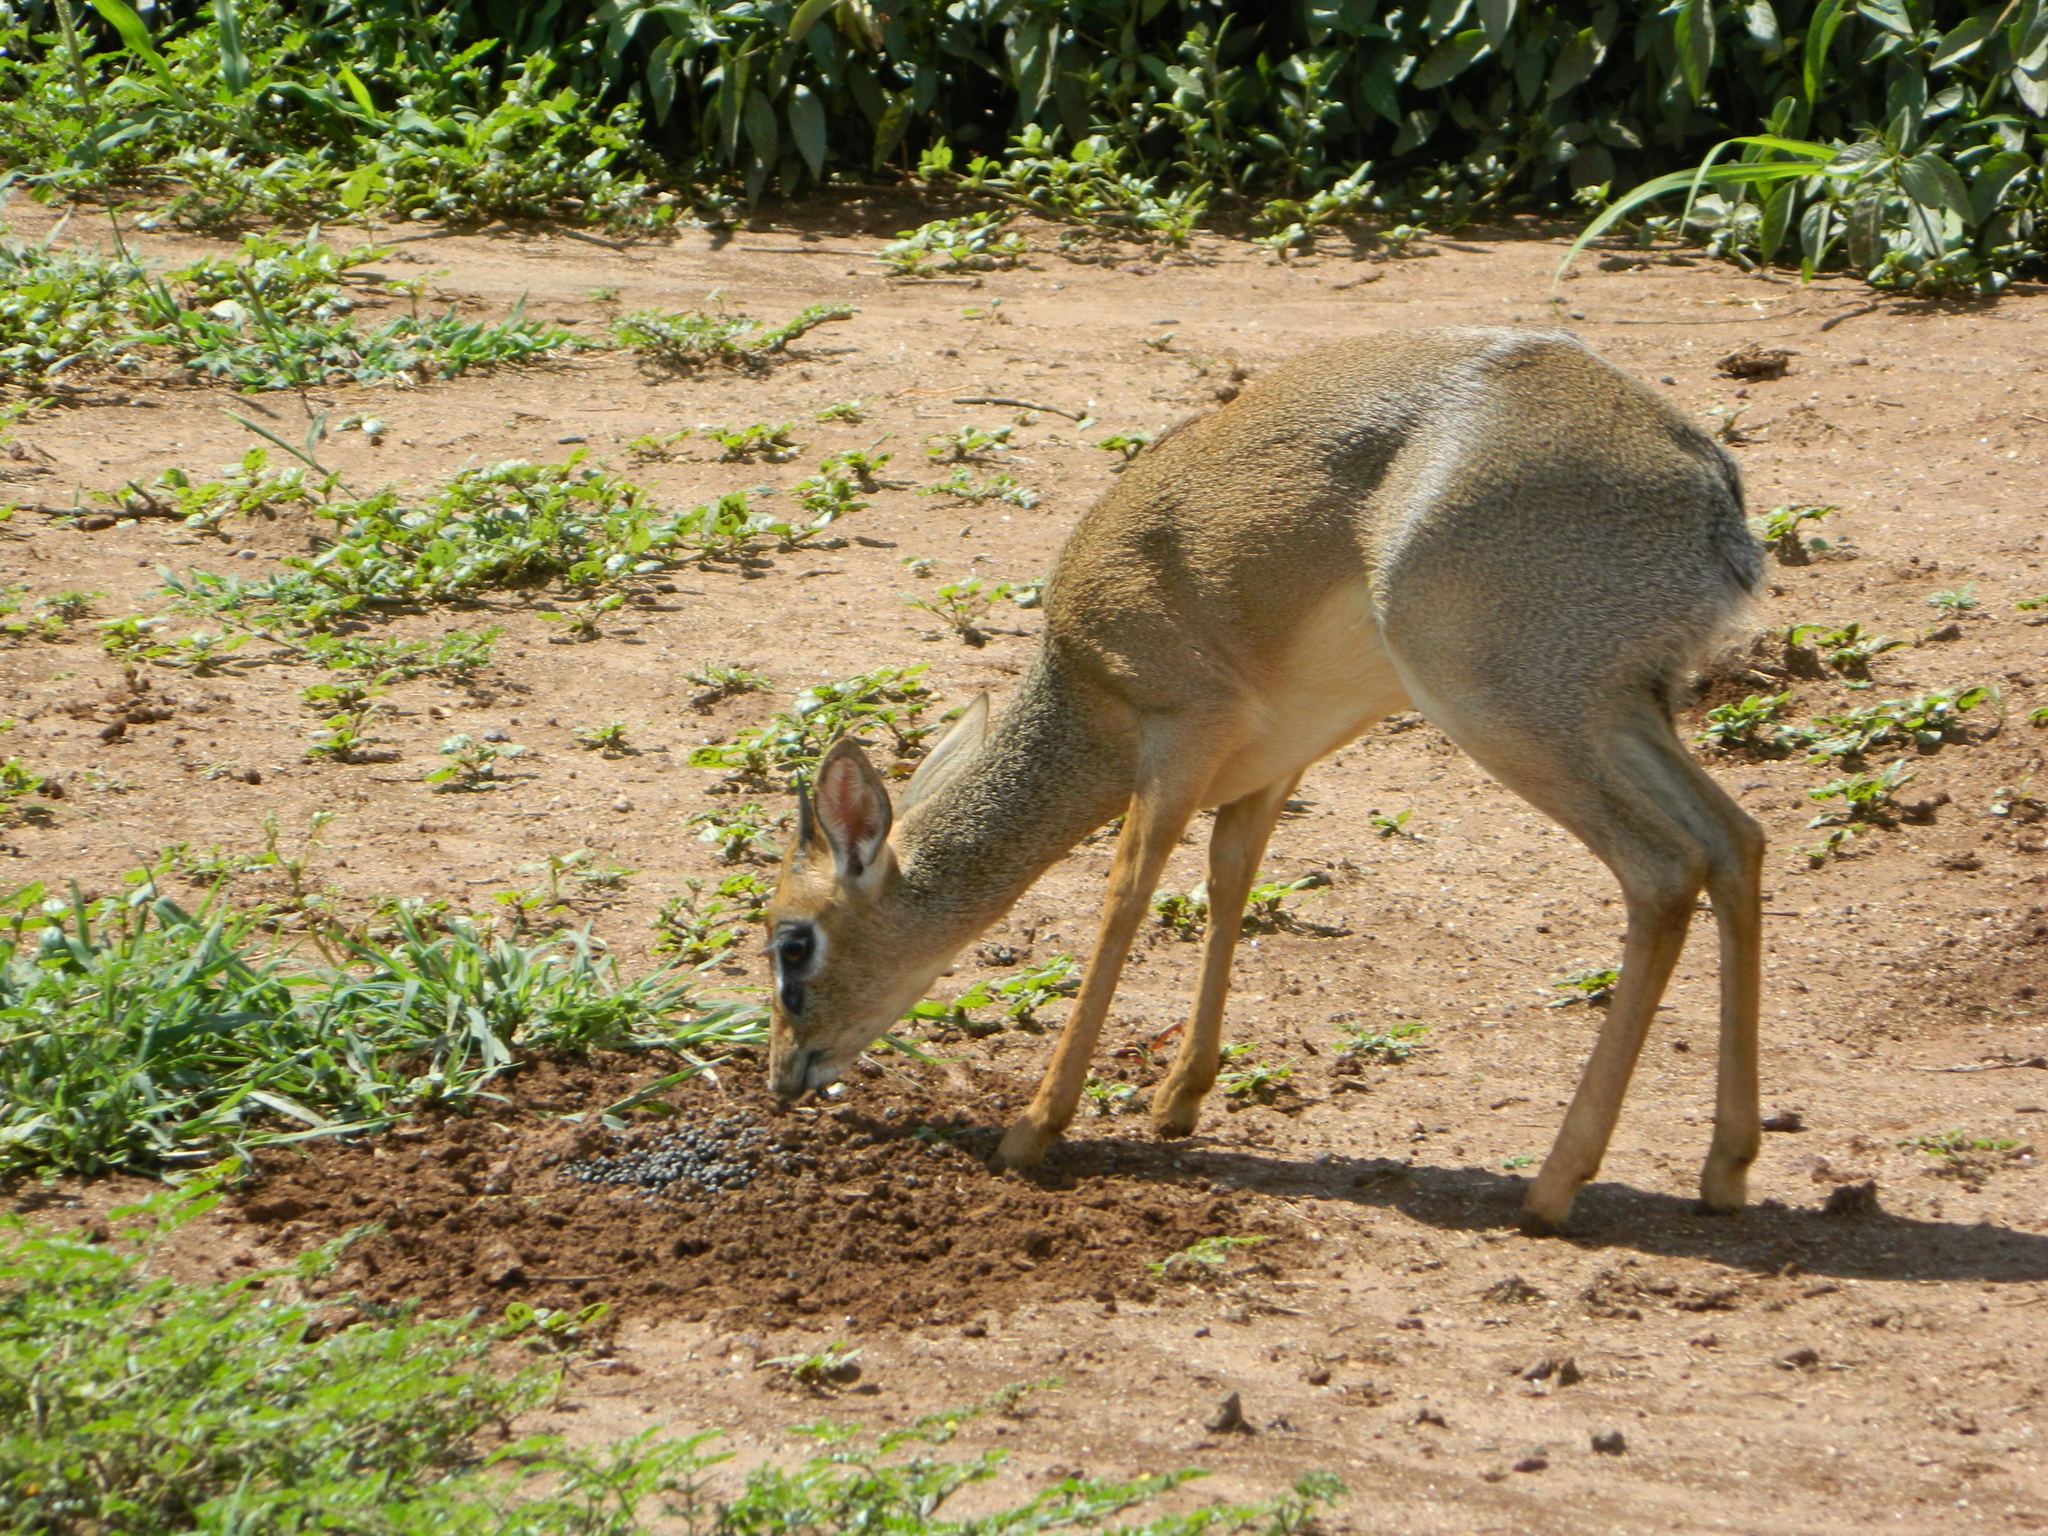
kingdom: Animalia
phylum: Chordata
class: Mammalia
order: Artiodactyla
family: Bovidae
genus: Madoqua
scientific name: Madoqua
